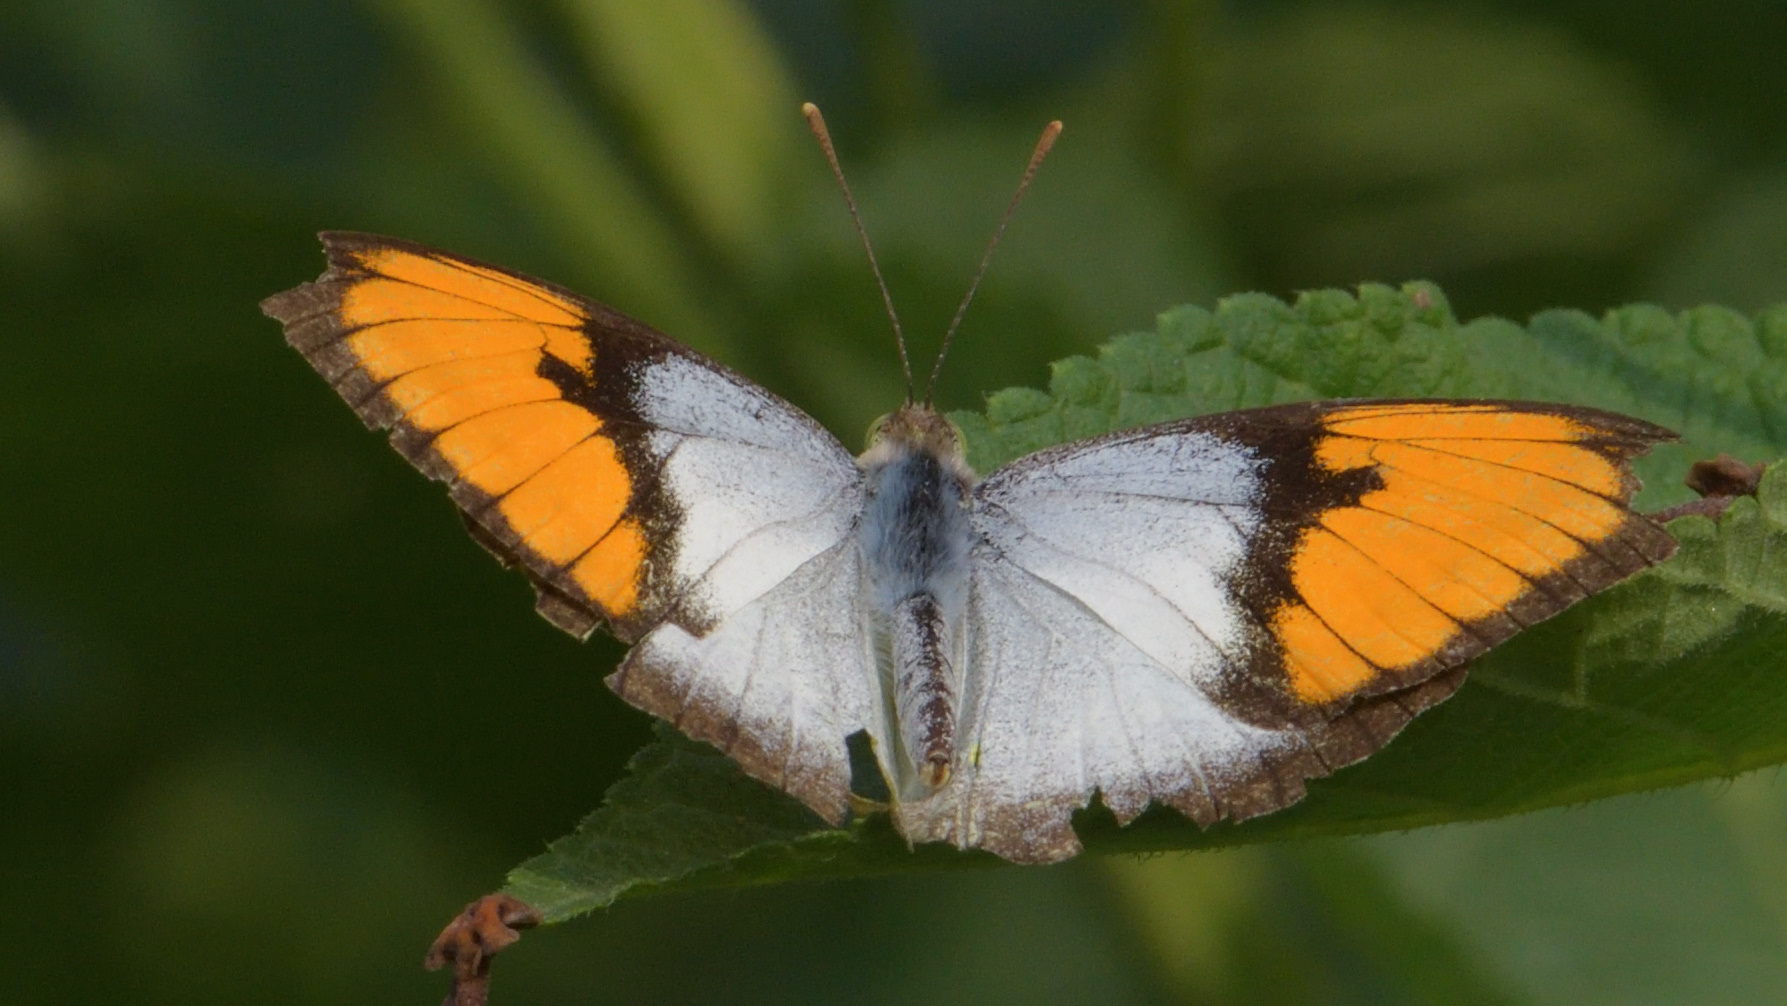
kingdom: Animalia
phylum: Arthropoda
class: Insecta
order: Lepidoptera
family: Pieridae
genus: Ixias
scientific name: Ixias marianne
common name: White orange tip
